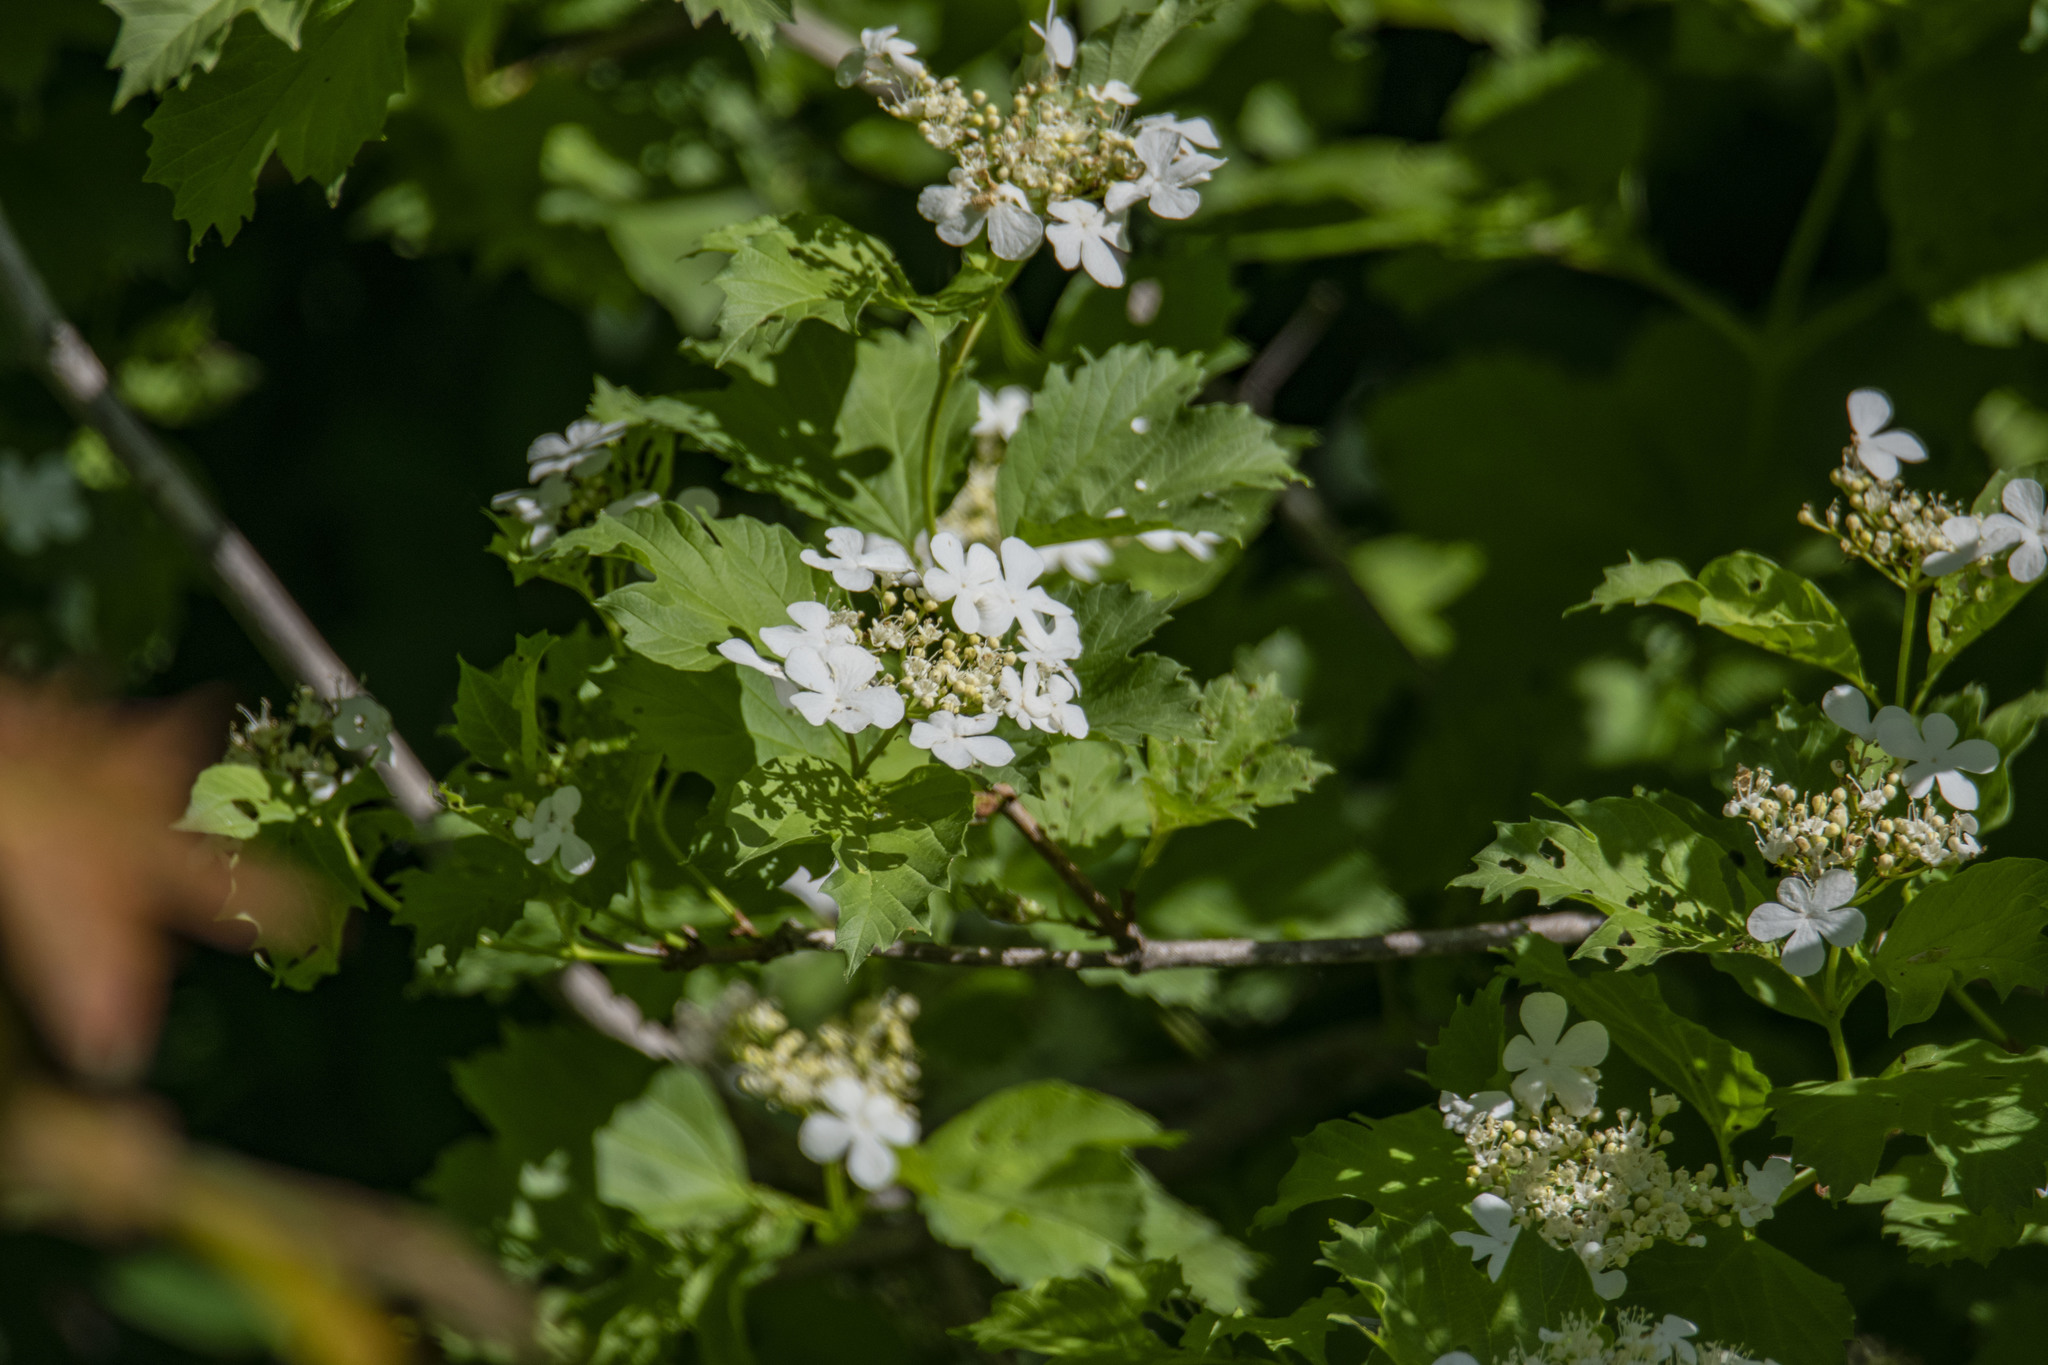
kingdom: Plantae
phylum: Tracheophyta
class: Magnoliopsida
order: Dipsacales
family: Viburnaceae
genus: Viburnum
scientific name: Viburnum opulus
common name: Guelder-rose
